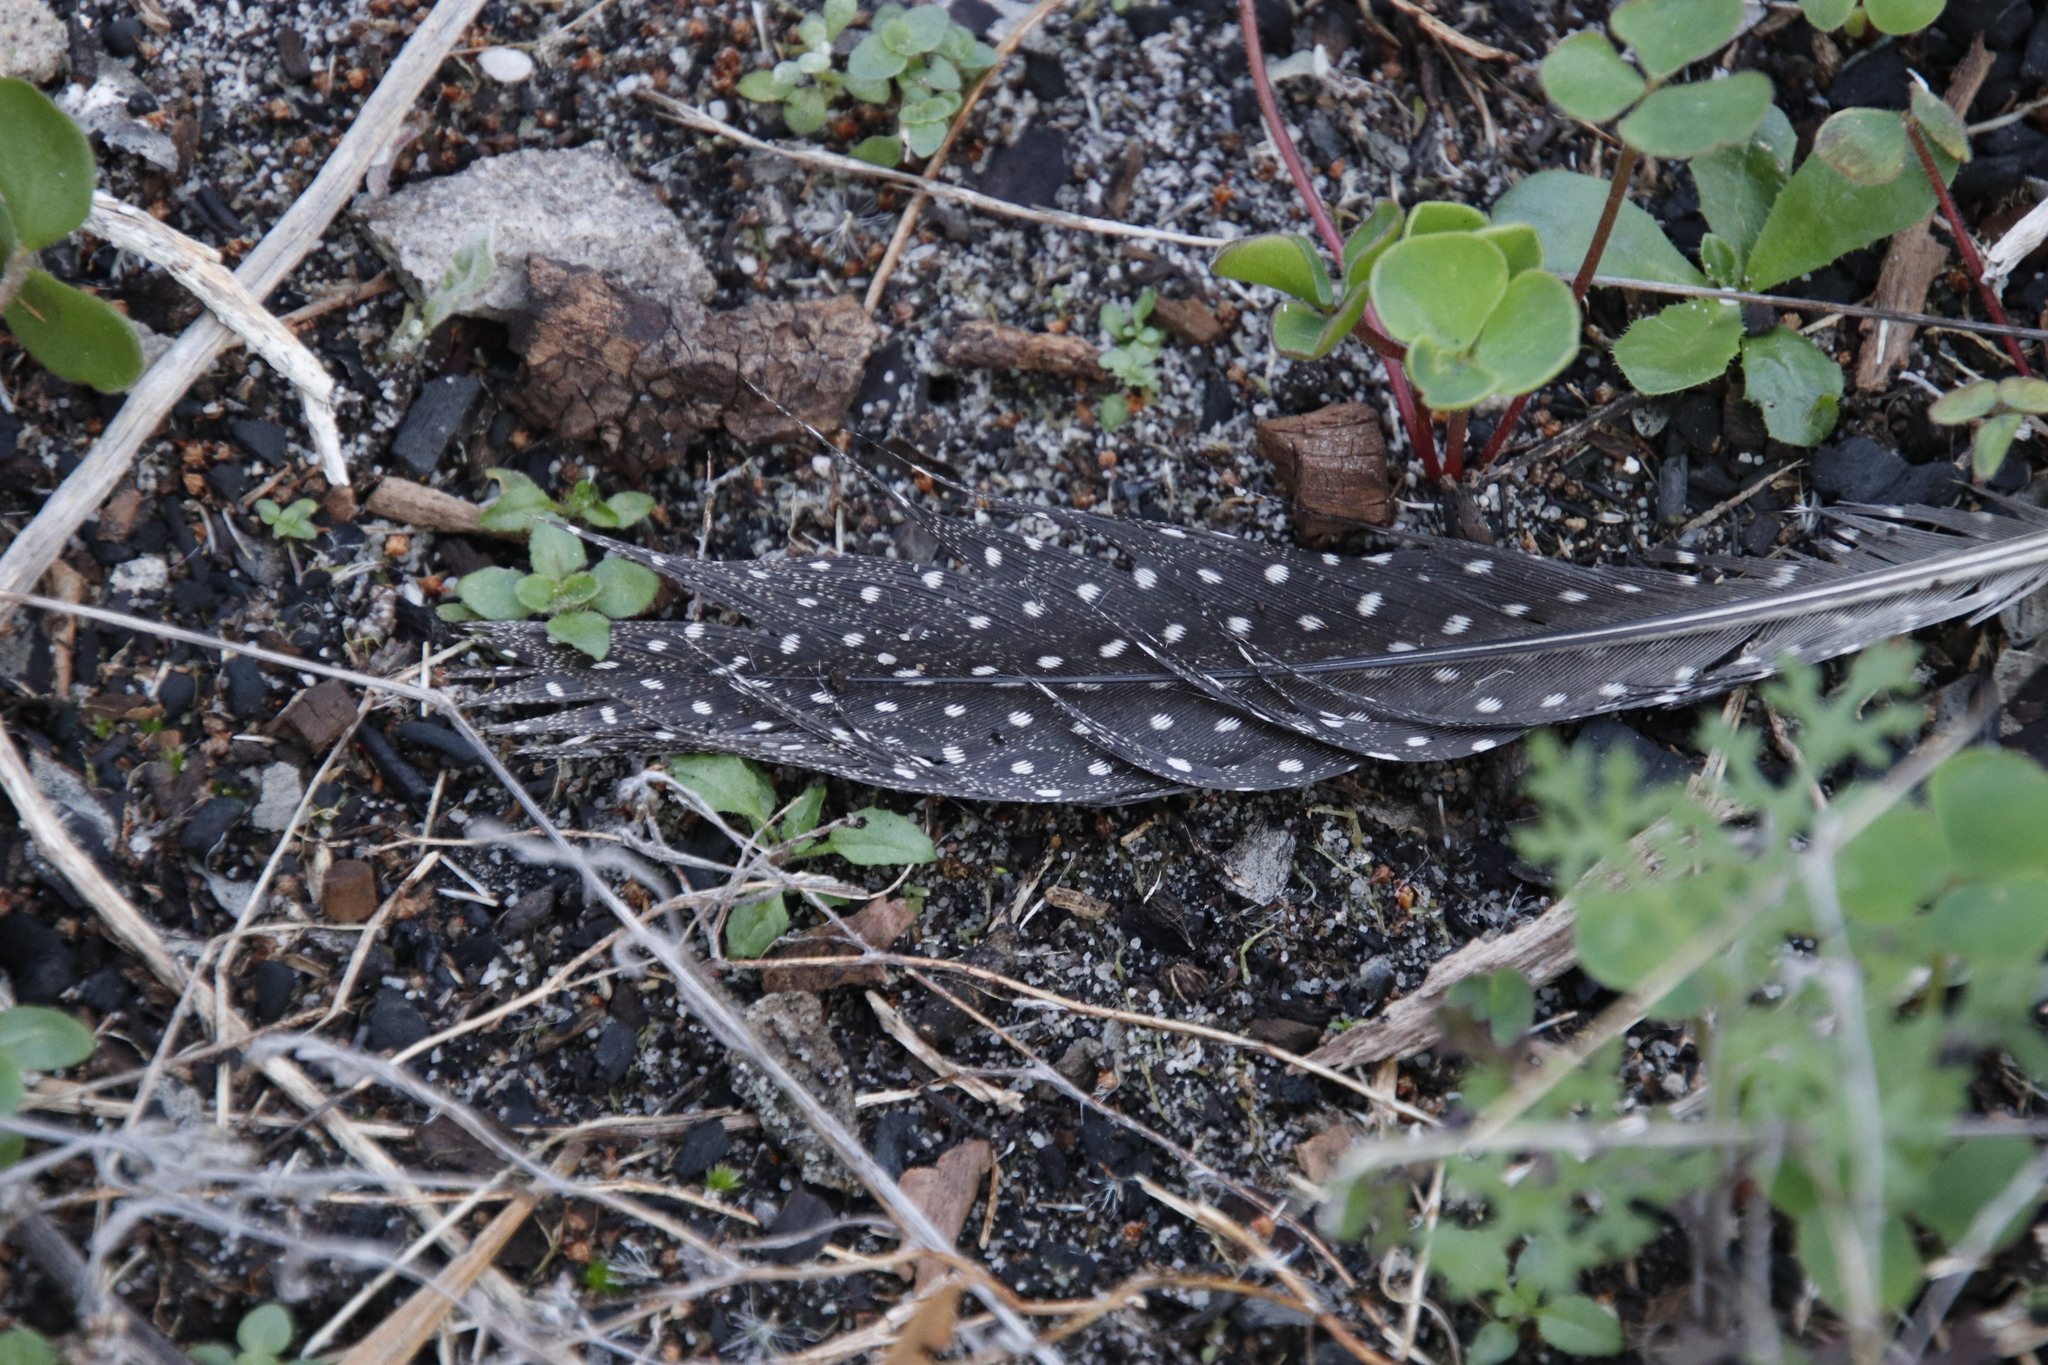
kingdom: Animalia
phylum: Chordata
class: Aves
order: Galliformes
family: Numididae
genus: Numida
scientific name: Numida meleagris
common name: Helmeted guineafowl
